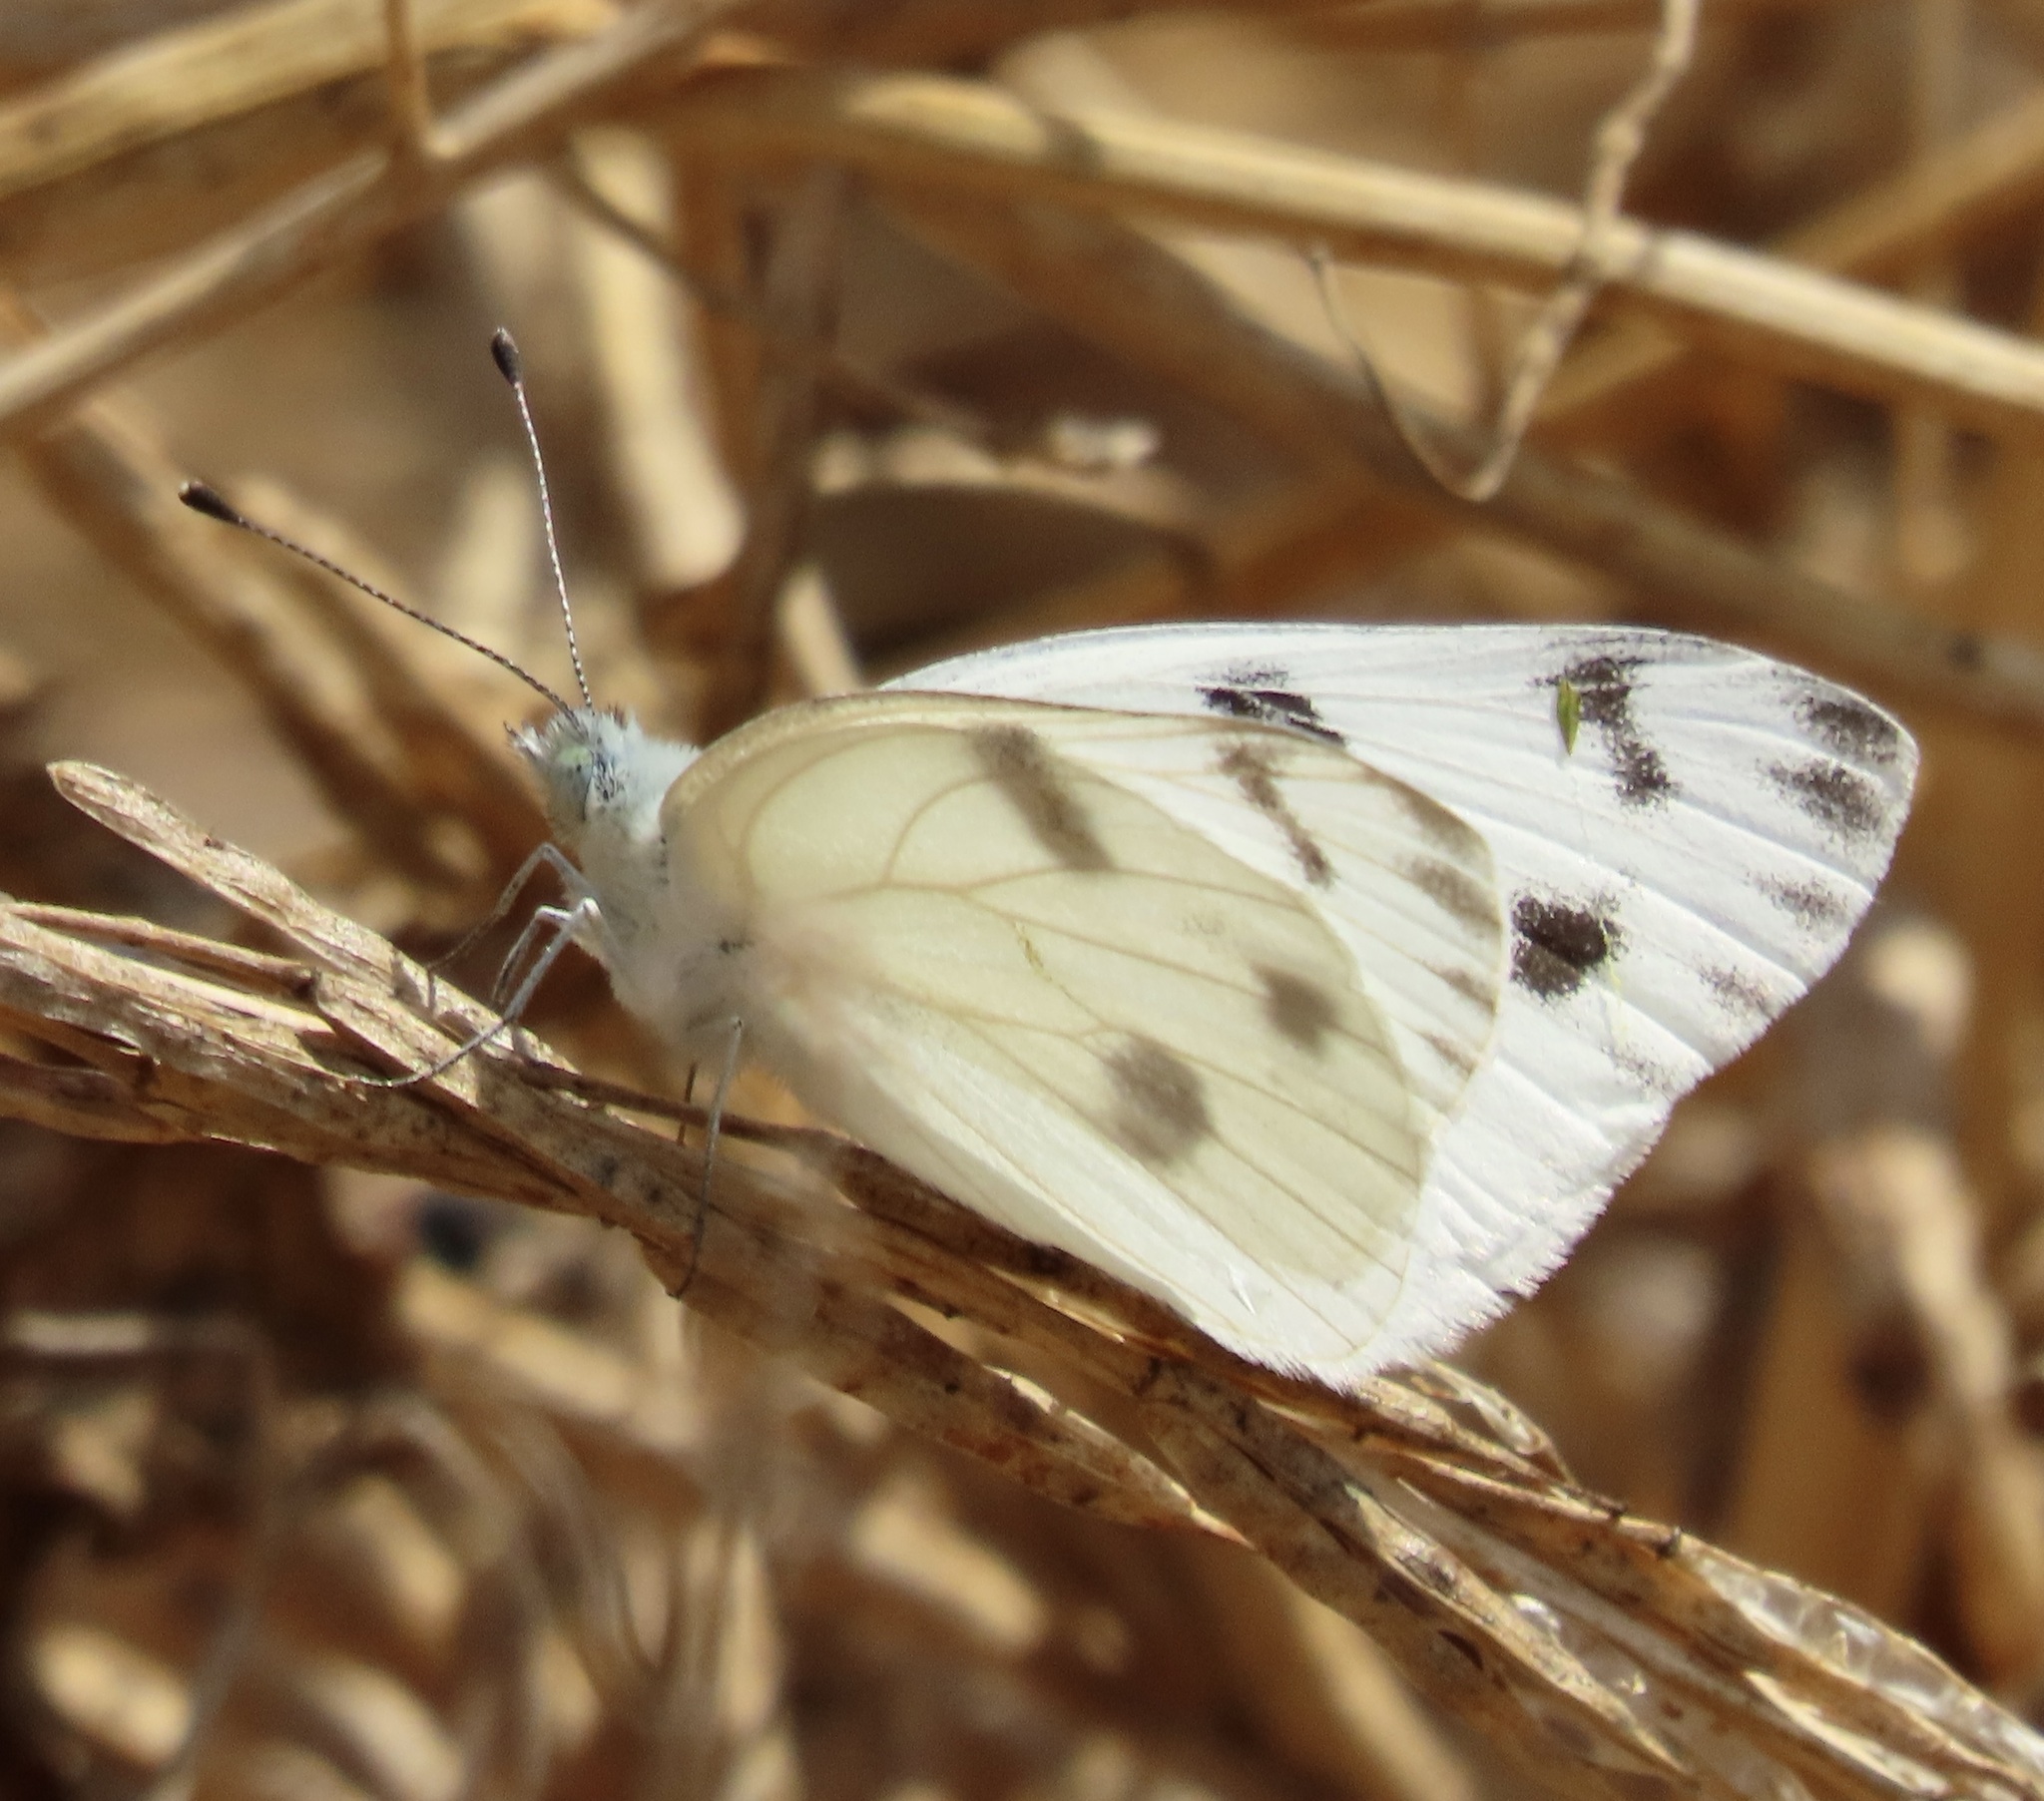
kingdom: Animalia
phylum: Arthropoda
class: Insecta
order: Lepidoptera
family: Pieridae
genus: Pontia
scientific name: Pontia protodice
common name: Checkered white
